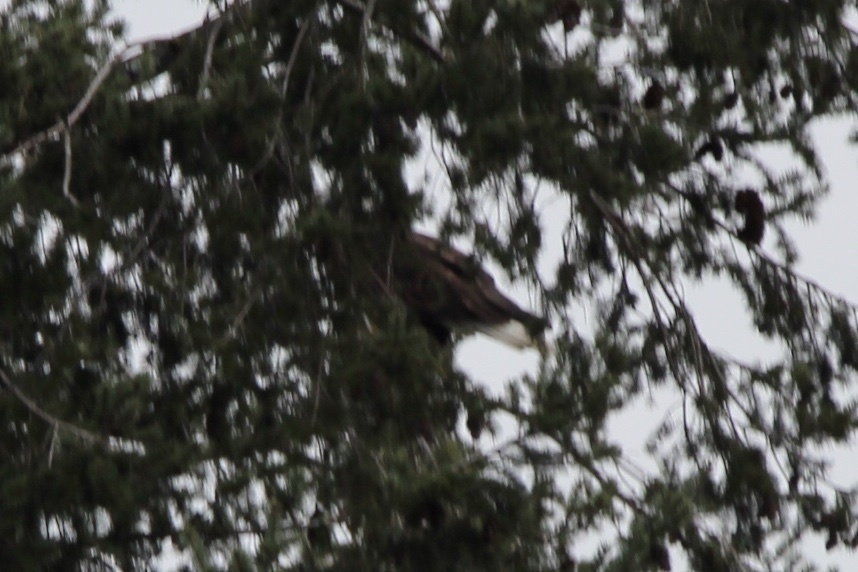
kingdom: Animalia
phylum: Chordata
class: Aves
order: Accipitriformes
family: Accipitridae
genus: Haliaeetus
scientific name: Haliaeetus leucocephalus
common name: Bald eagle
